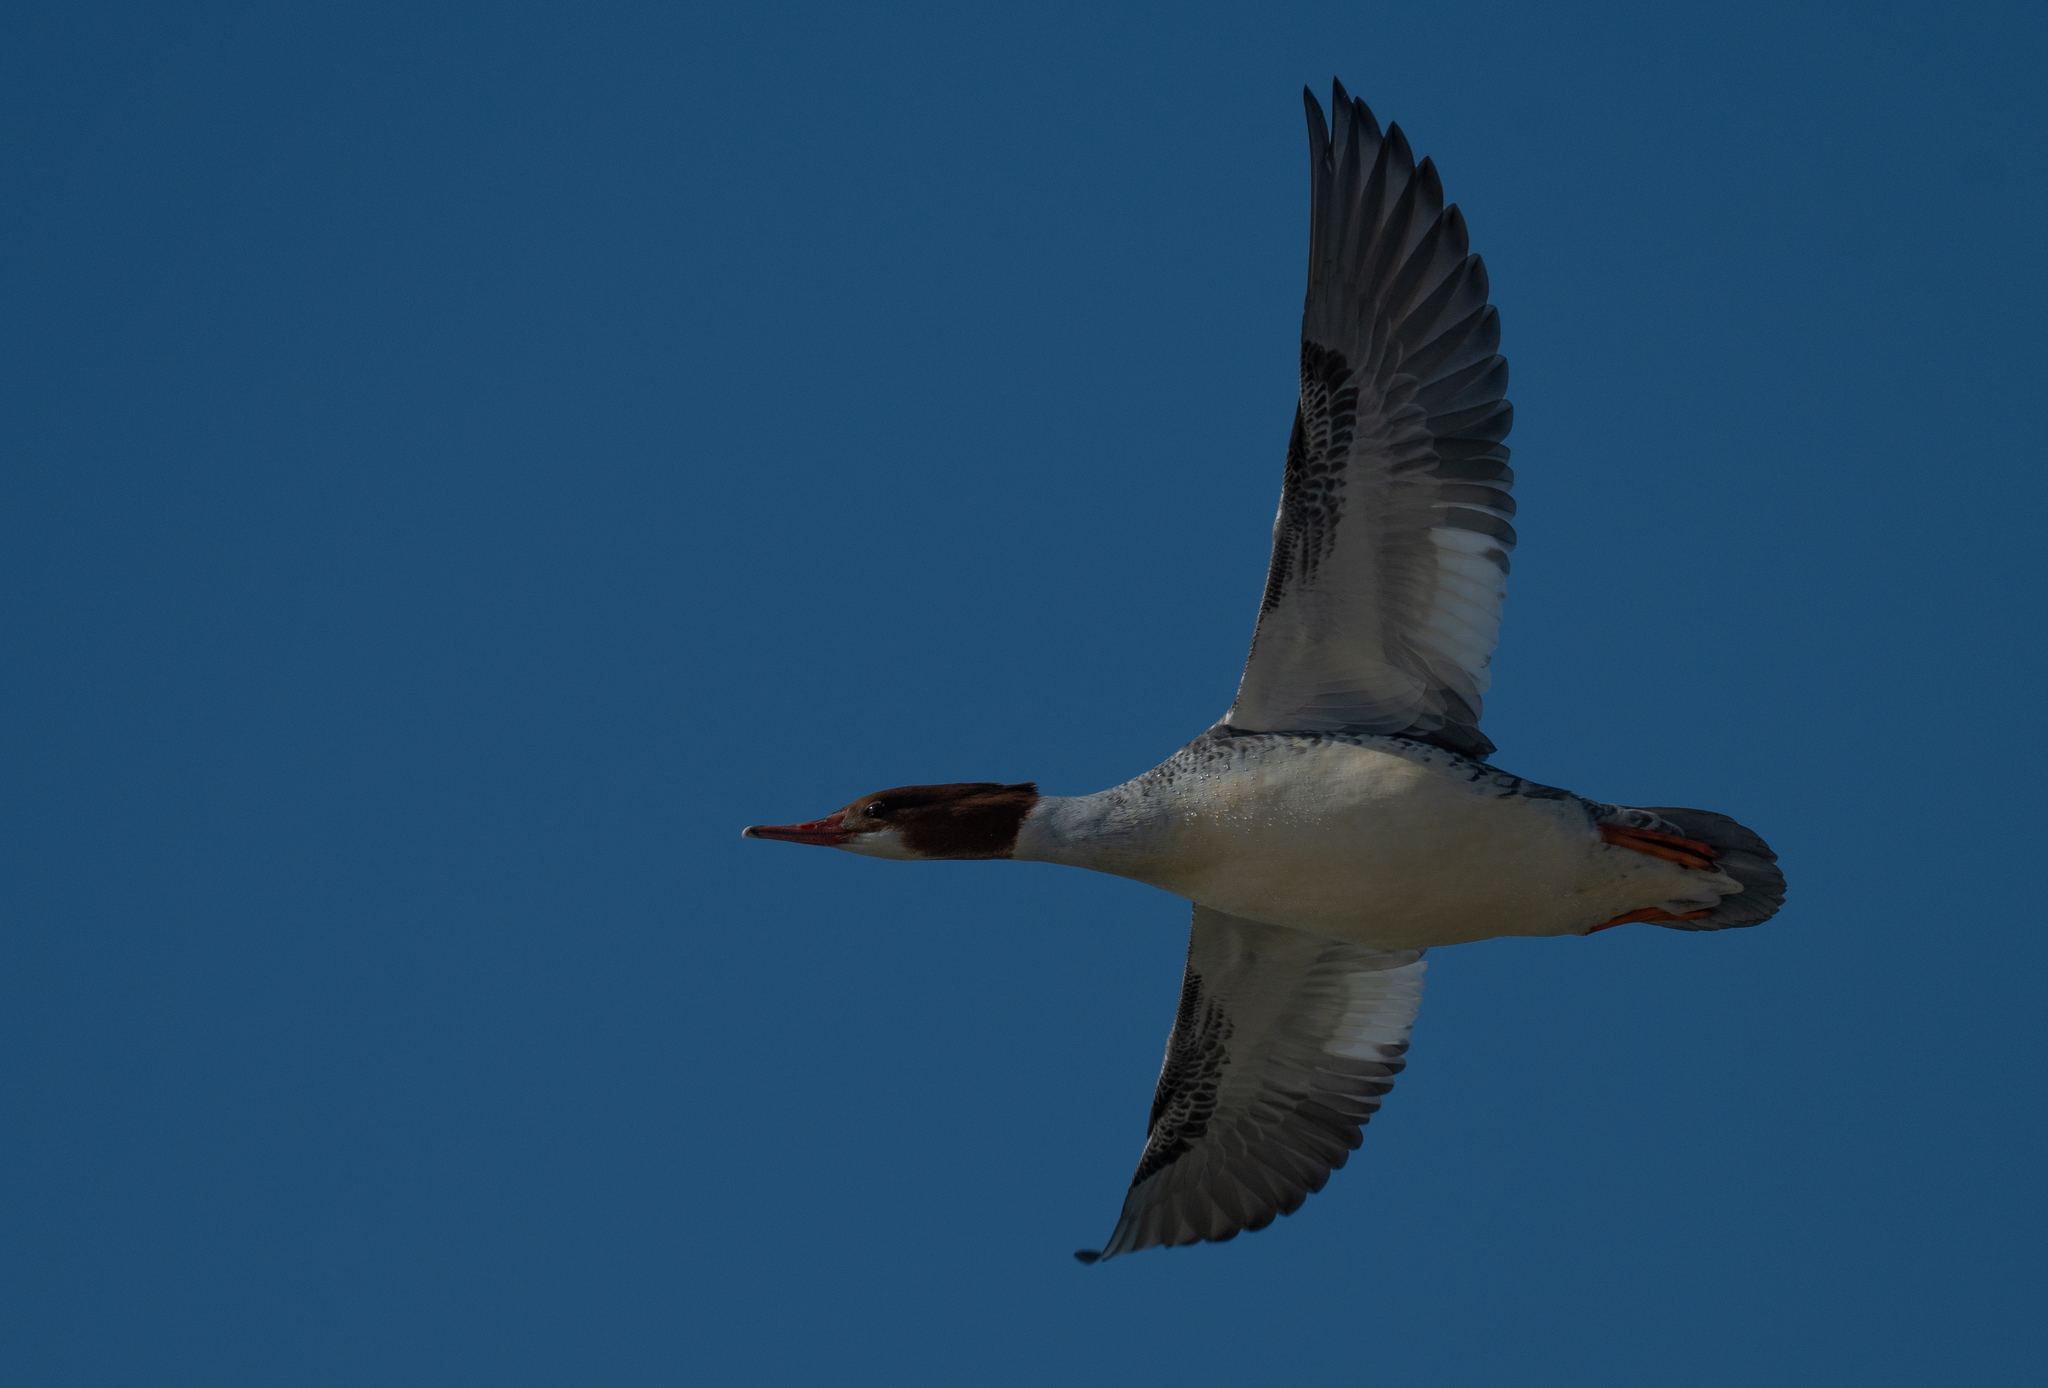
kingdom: Animalia
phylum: Chordata
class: Aves
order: Anseriformes
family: Anatidae
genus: Mergus
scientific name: Mergus merganser
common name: Common merganser
